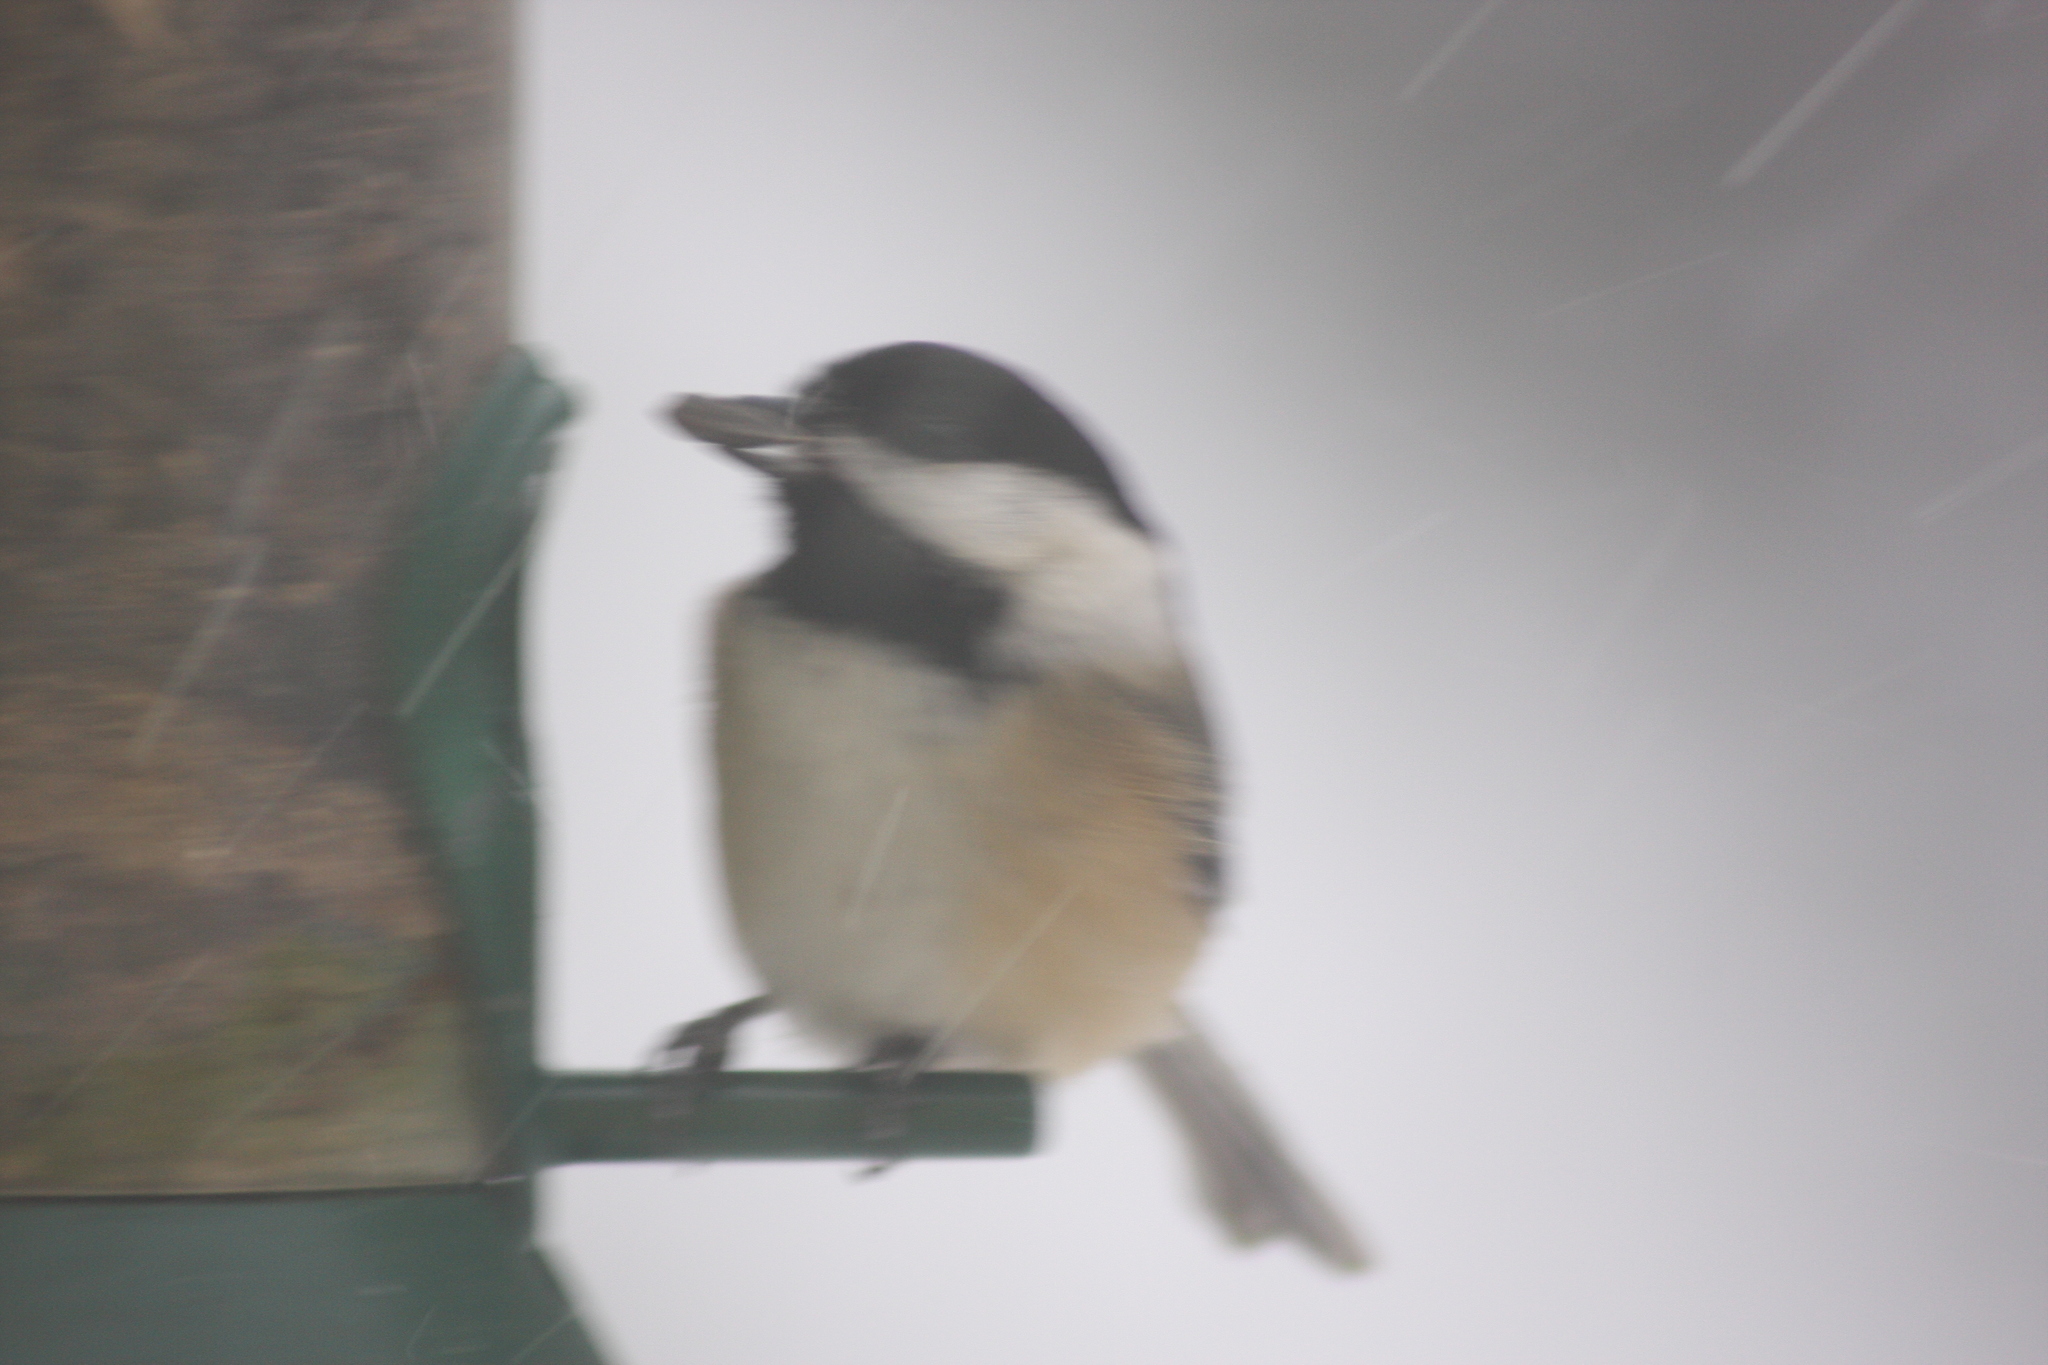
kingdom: Animalia
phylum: Chordata
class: Aves
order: Passeriformes
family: Paridae
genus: Poecile
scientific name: Poecile atricapillus
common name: Black-capped chickadee
